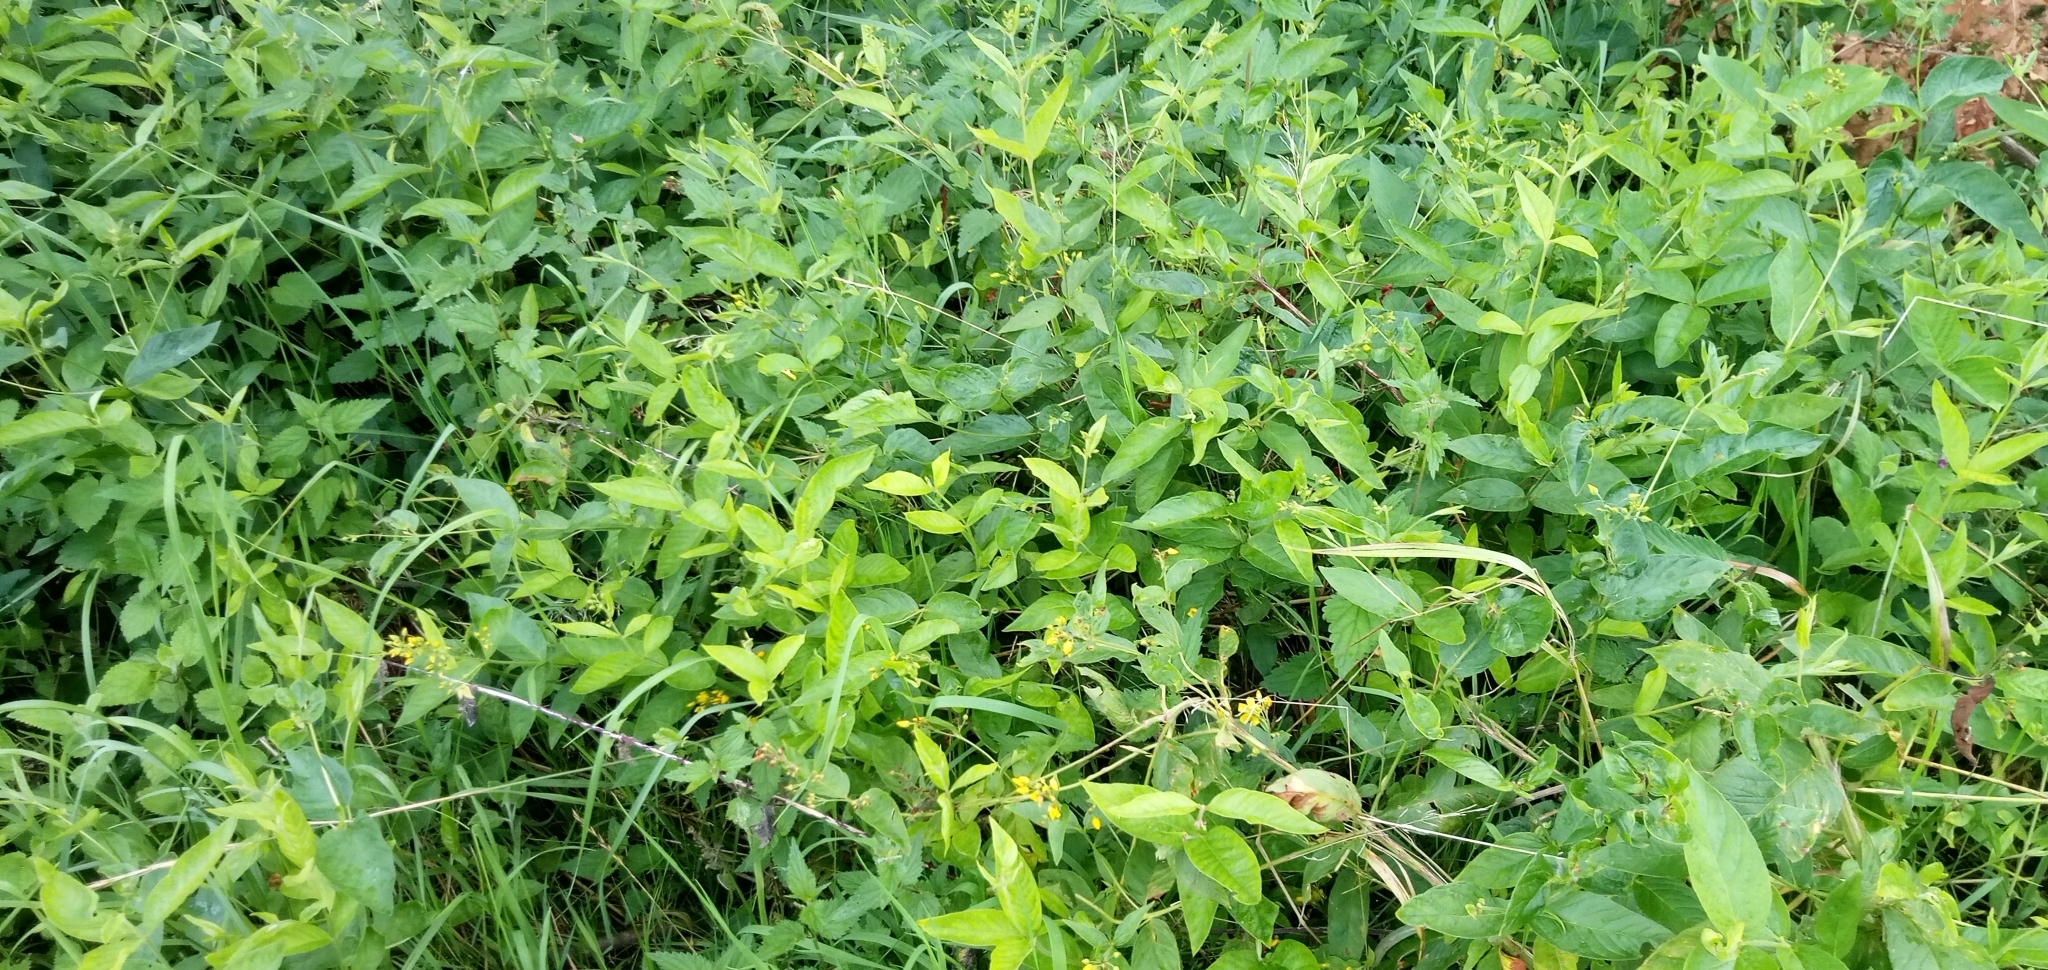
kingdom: Plantae
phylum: Tracheophyta
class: Magnoliopsida
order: Ericales
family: Primulaceae
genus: Lysimachia
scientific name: Lysimachia vulgaris
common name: Yellow loosestrife
